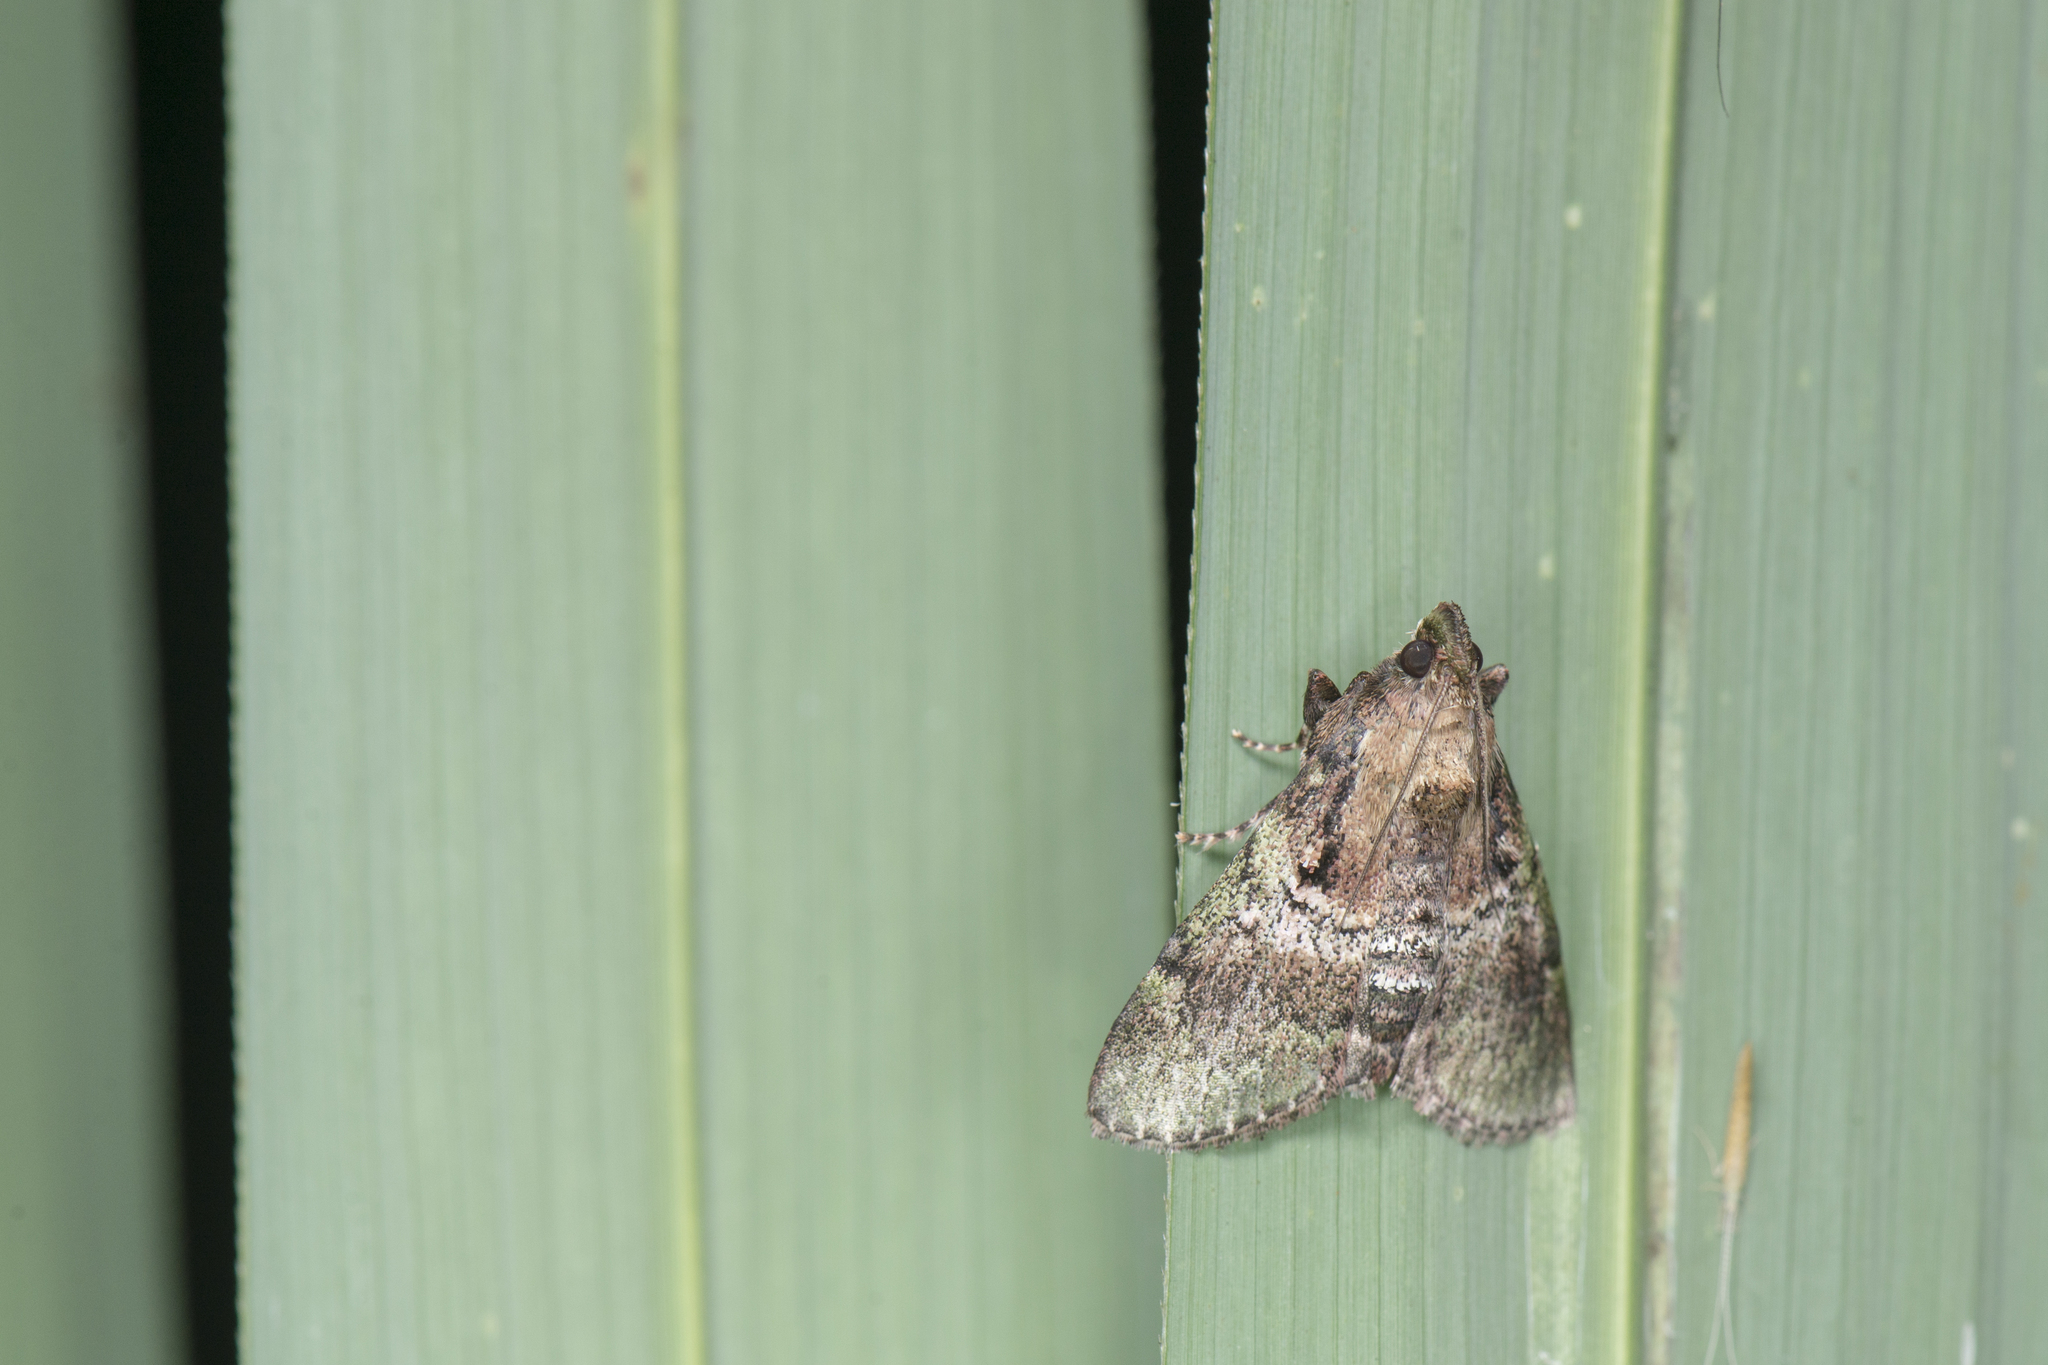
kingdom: Animalia
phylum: Arthropoda
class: Insecta
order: Lepidoptera
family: Pyralidae
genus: Locastra
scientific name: Locastra muscosalis
